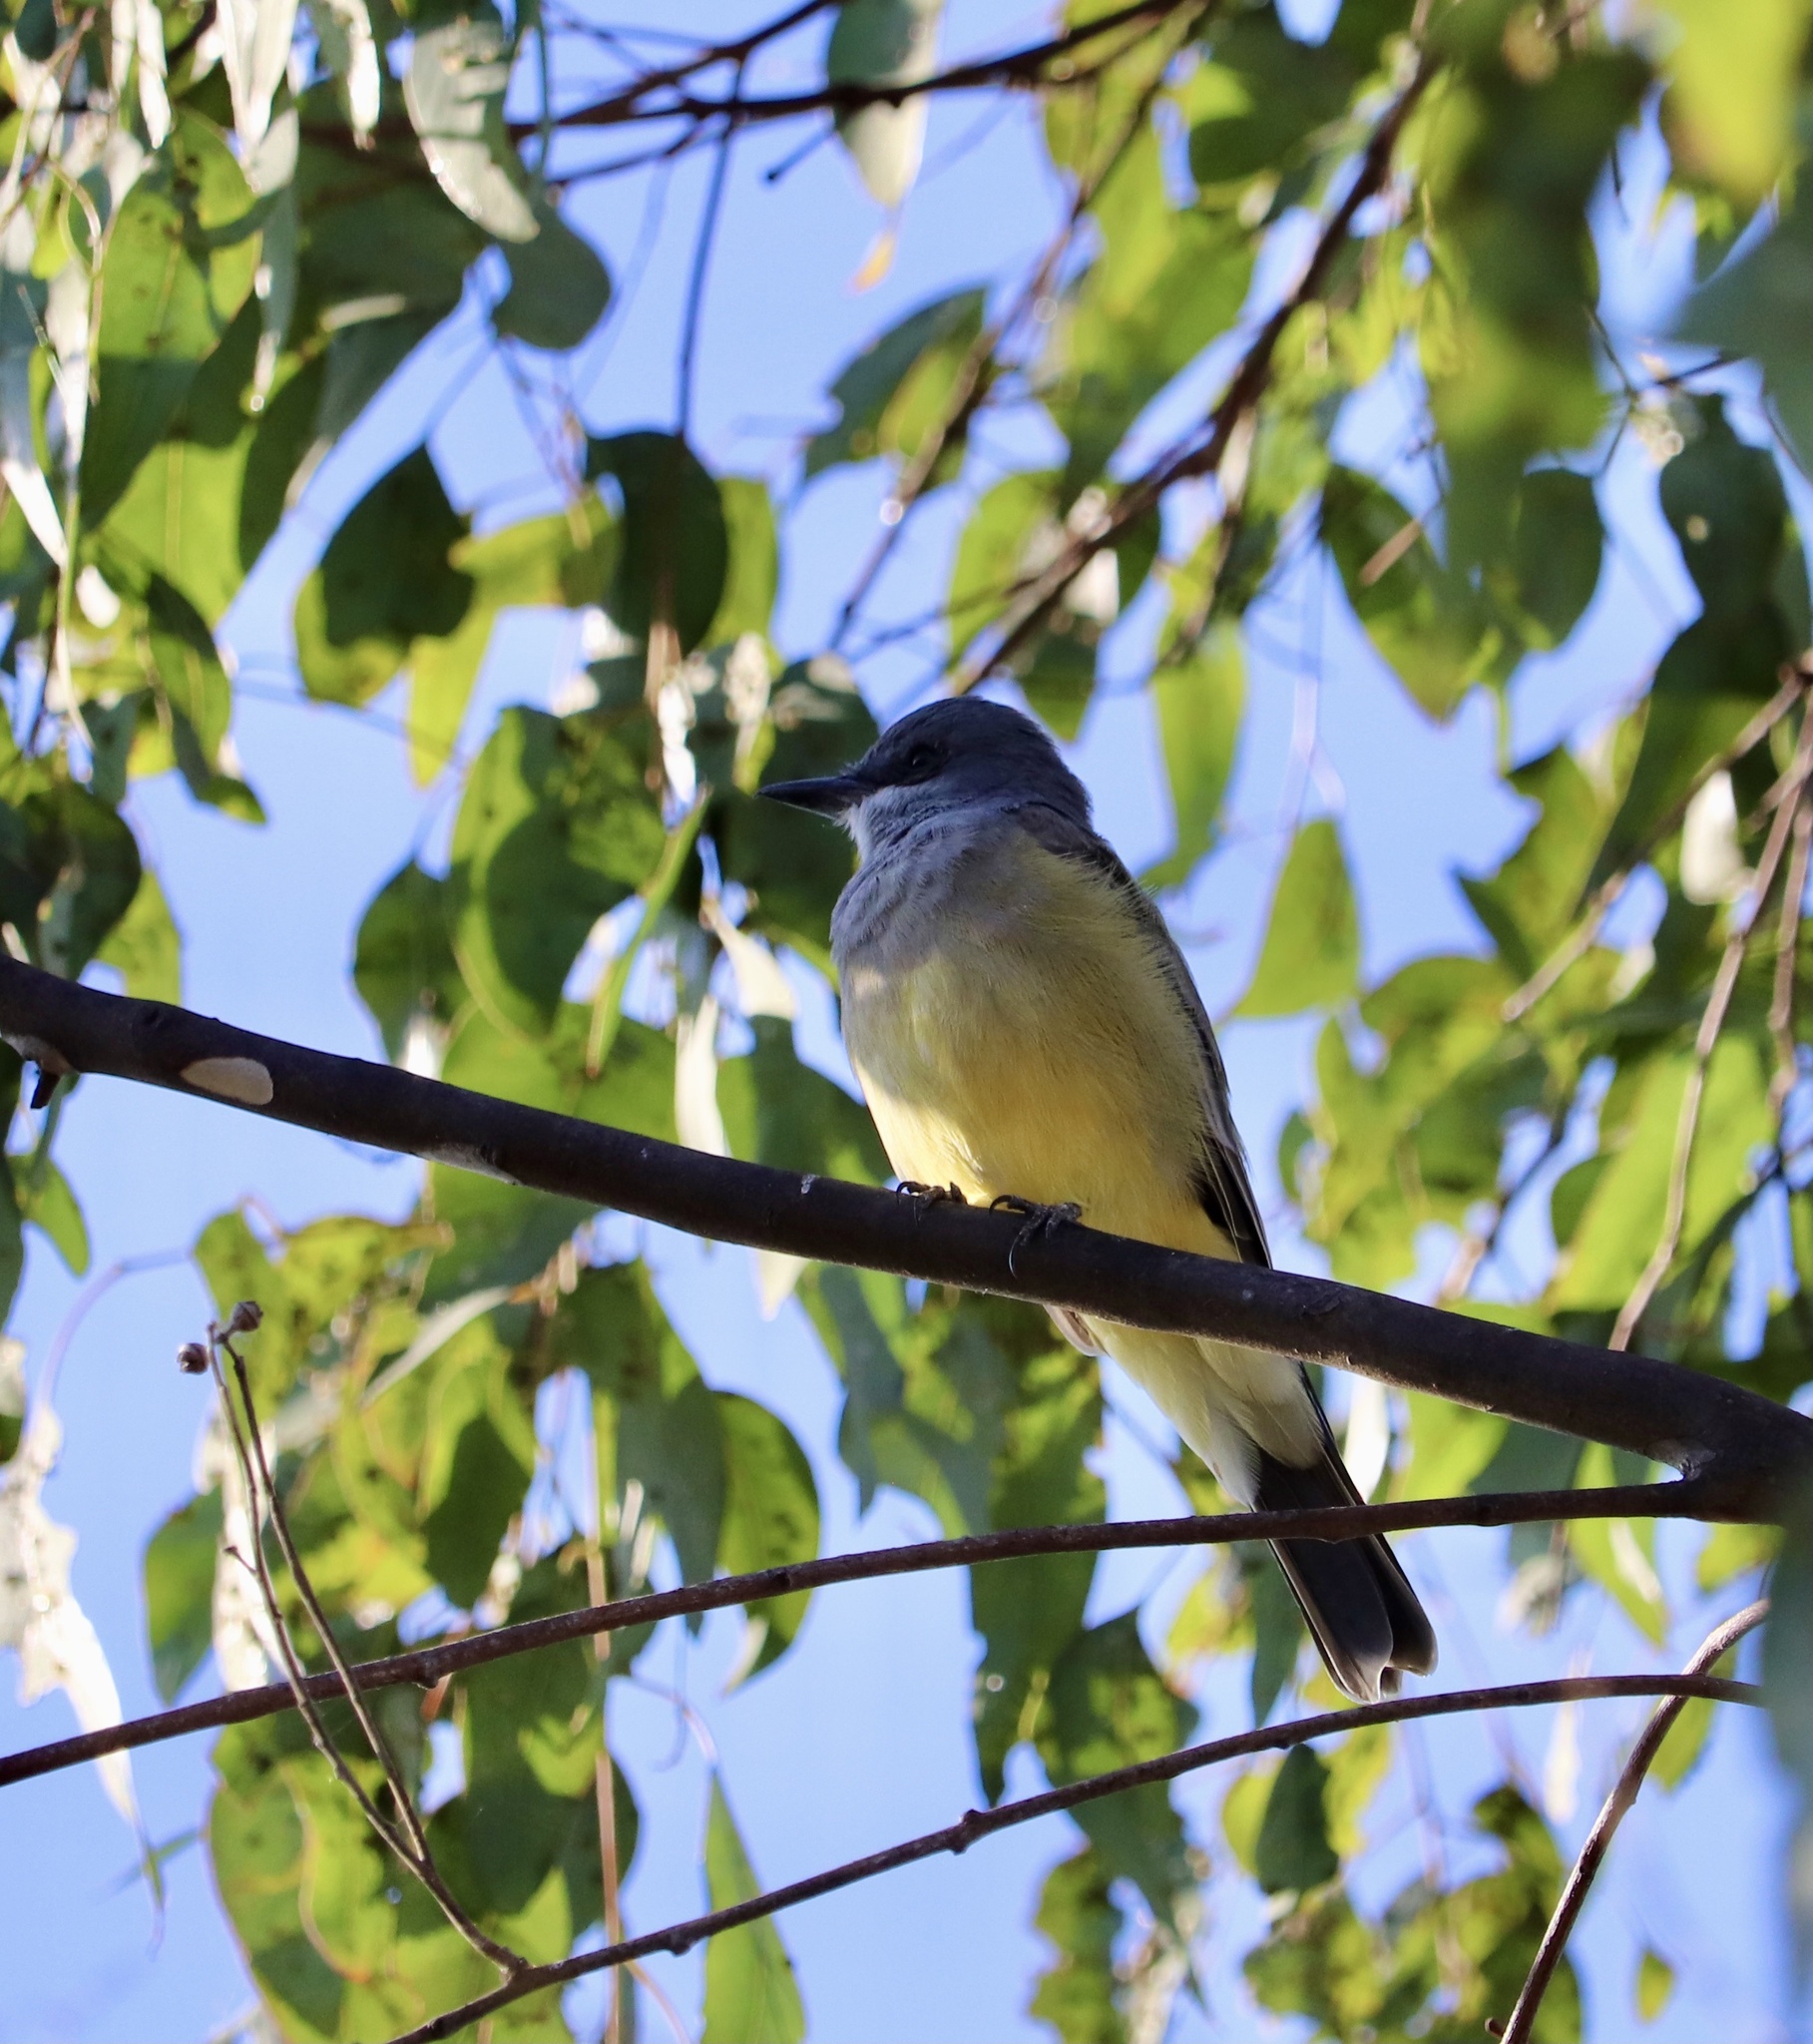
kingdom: Animalia
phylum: Chordata
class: Aves
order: Passeriformes
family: Tyrannidae
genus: Tyrannus
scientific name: Tyrannus vociferans
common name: Cassin's kingbird
